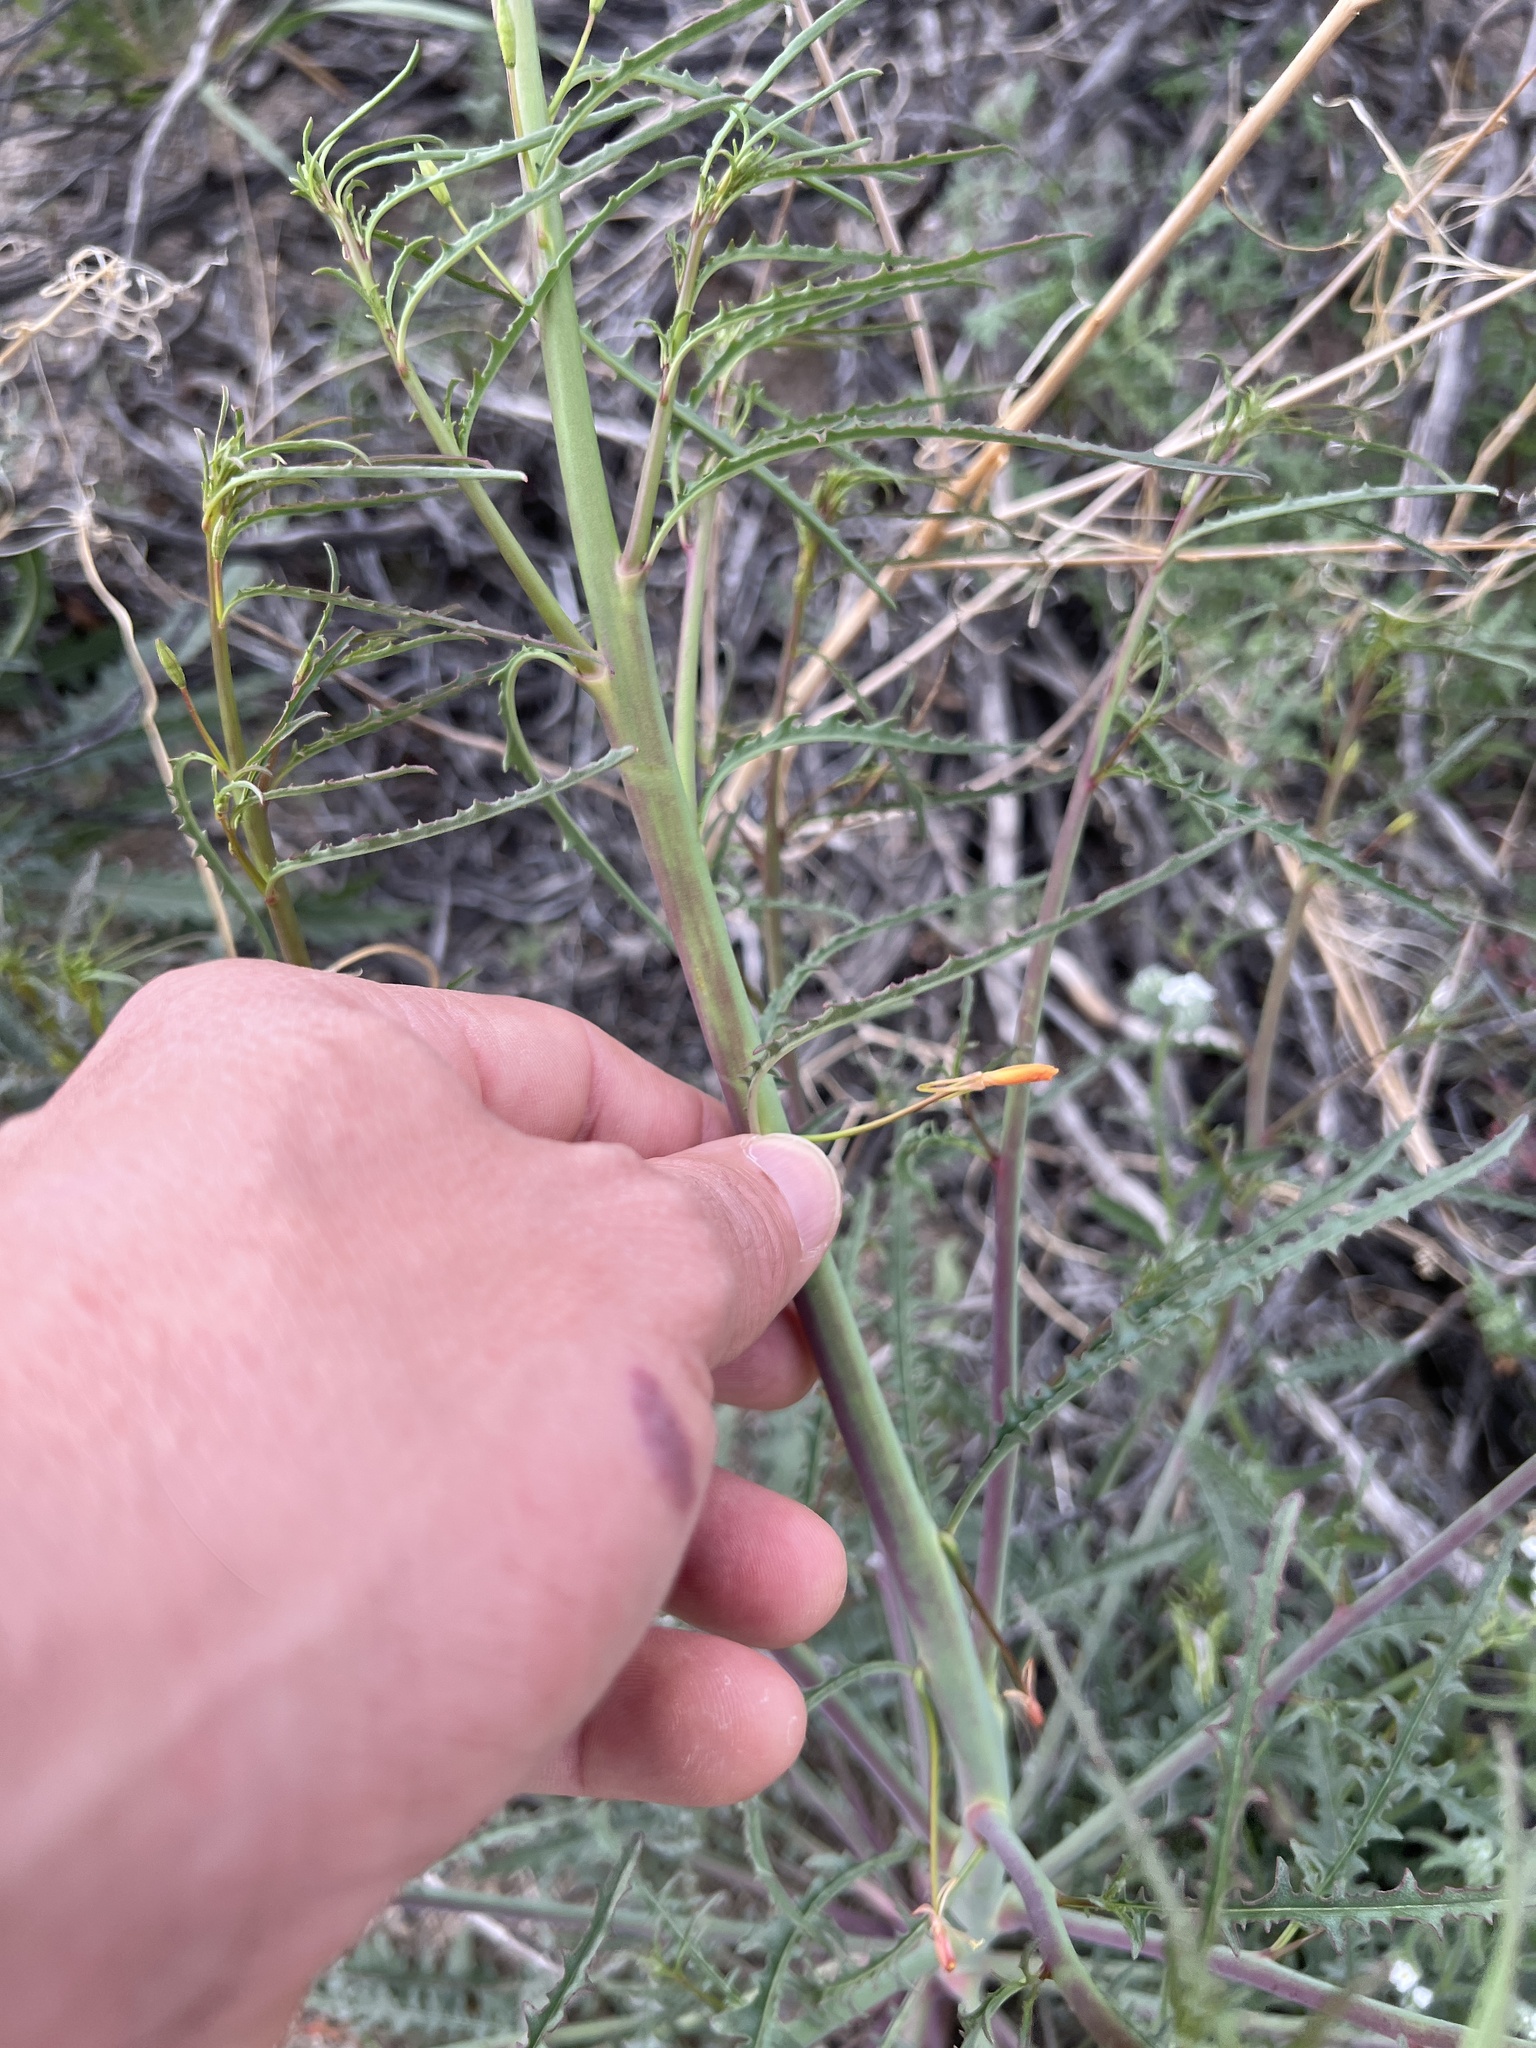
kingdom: Plantae
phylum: Tracheophyta
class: Magnoliopsida
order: Myrtales
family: Onagraceae
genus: Eulobus
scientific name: Eulobus californicus
